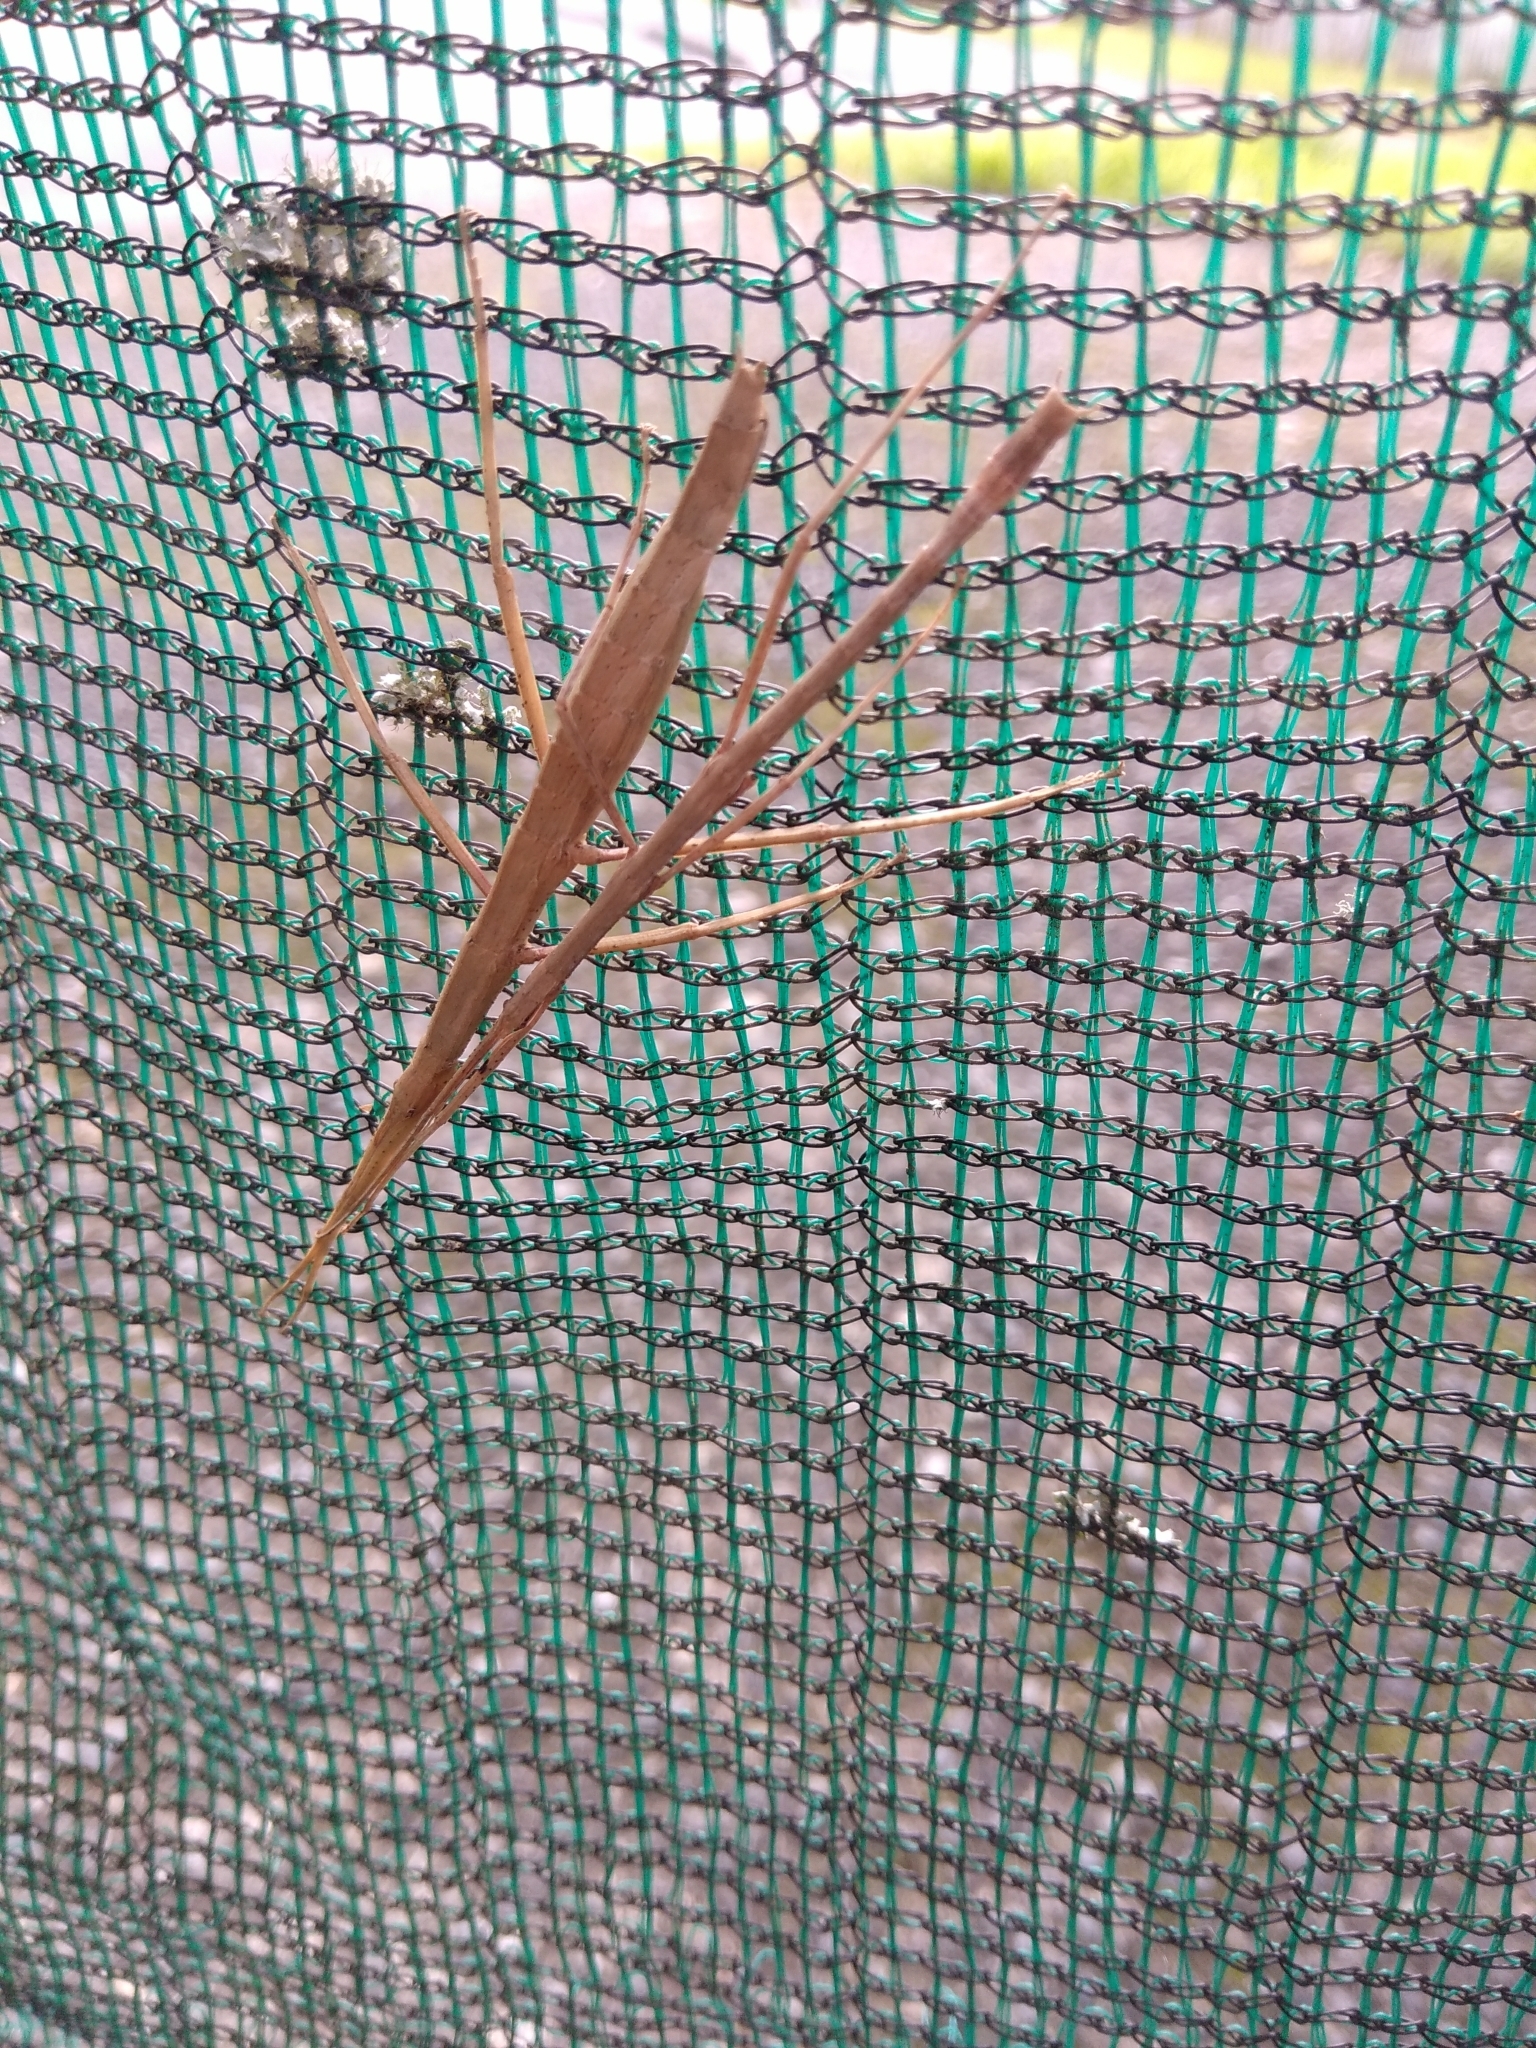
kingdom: Animalia
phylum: Arthropoda
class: Insecta
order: Phasmida
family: Phasmatidae
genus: Tectarchus
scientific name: Tectarchus huttoni
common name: The common ridge-backed stick insect
